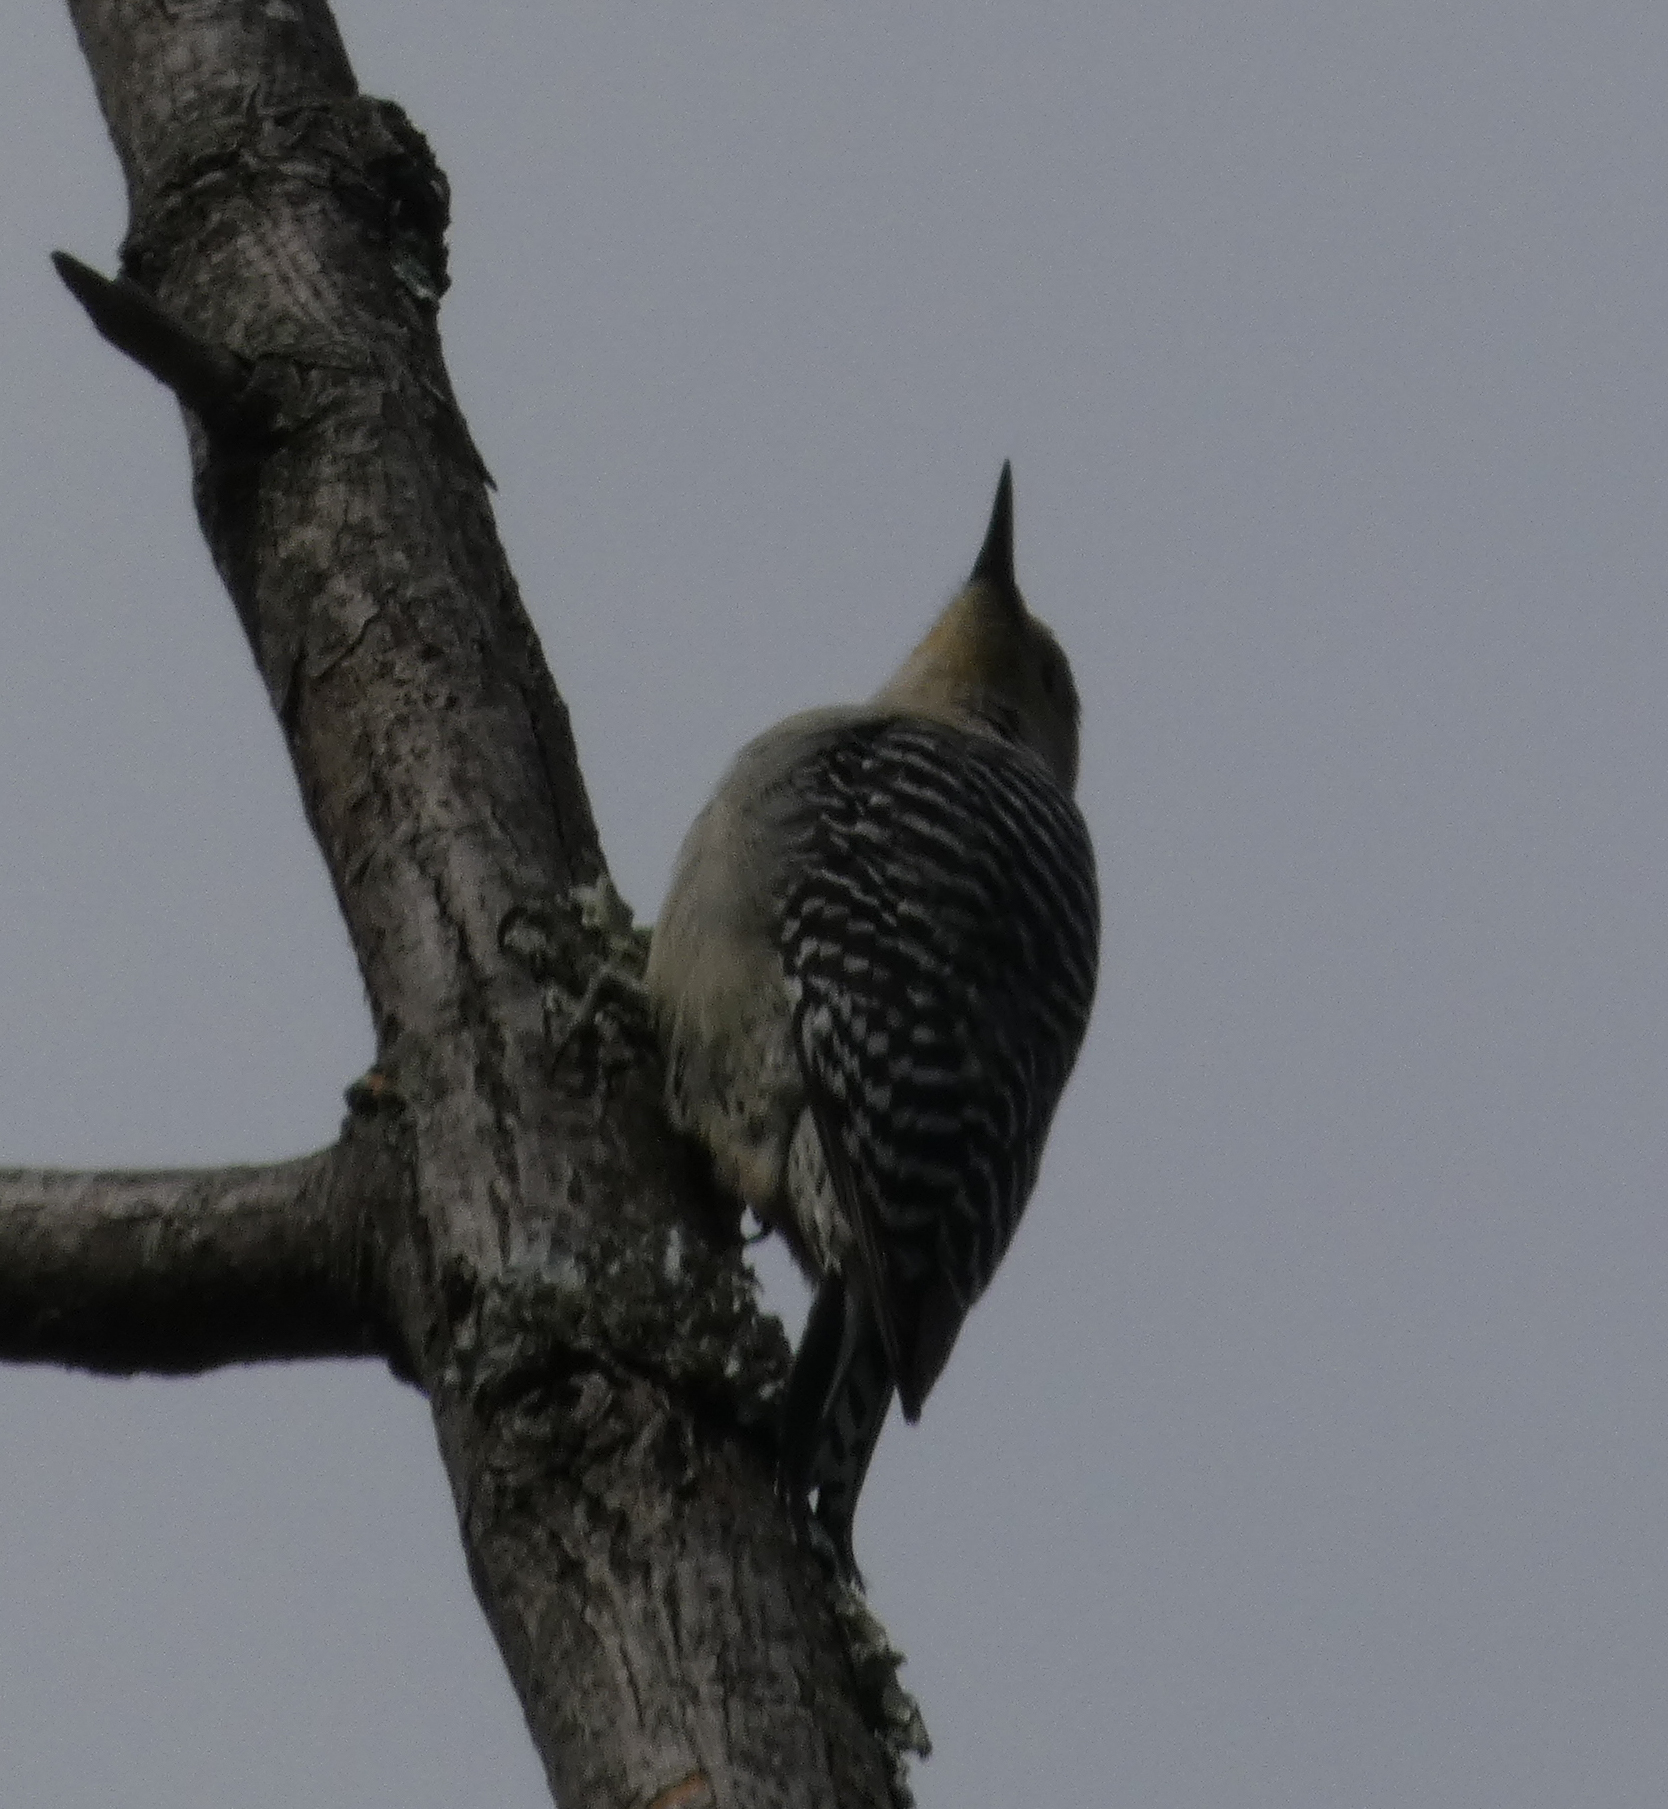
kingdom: Animalia
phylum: Chordata
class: Aves
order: Piciformes
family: Picidae
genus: Melanerpes
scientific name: Melanerpes carolinus
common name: Red-bellied woodpecker
